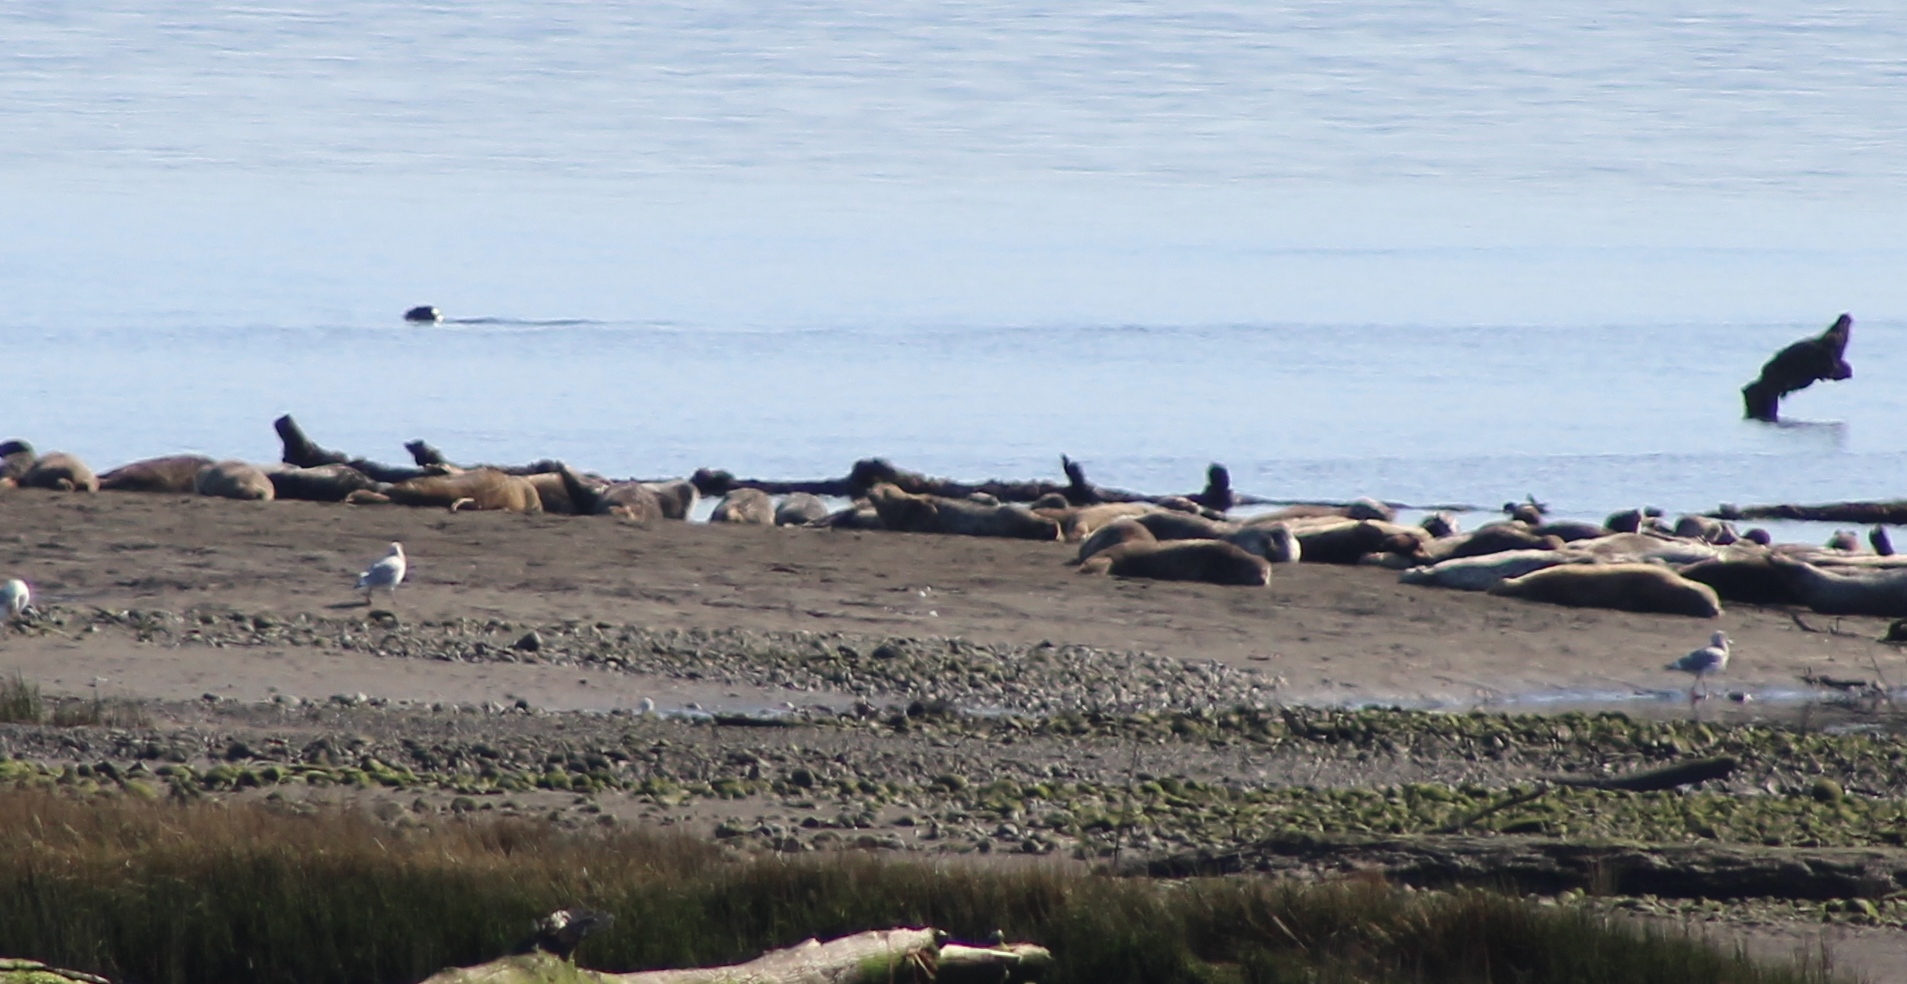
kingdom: Animalia
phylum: Chordata
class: Mammalia
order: Carnivora
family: Phocidae
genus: Phoca
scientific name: Phoca vitulina
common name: Harbor seal
